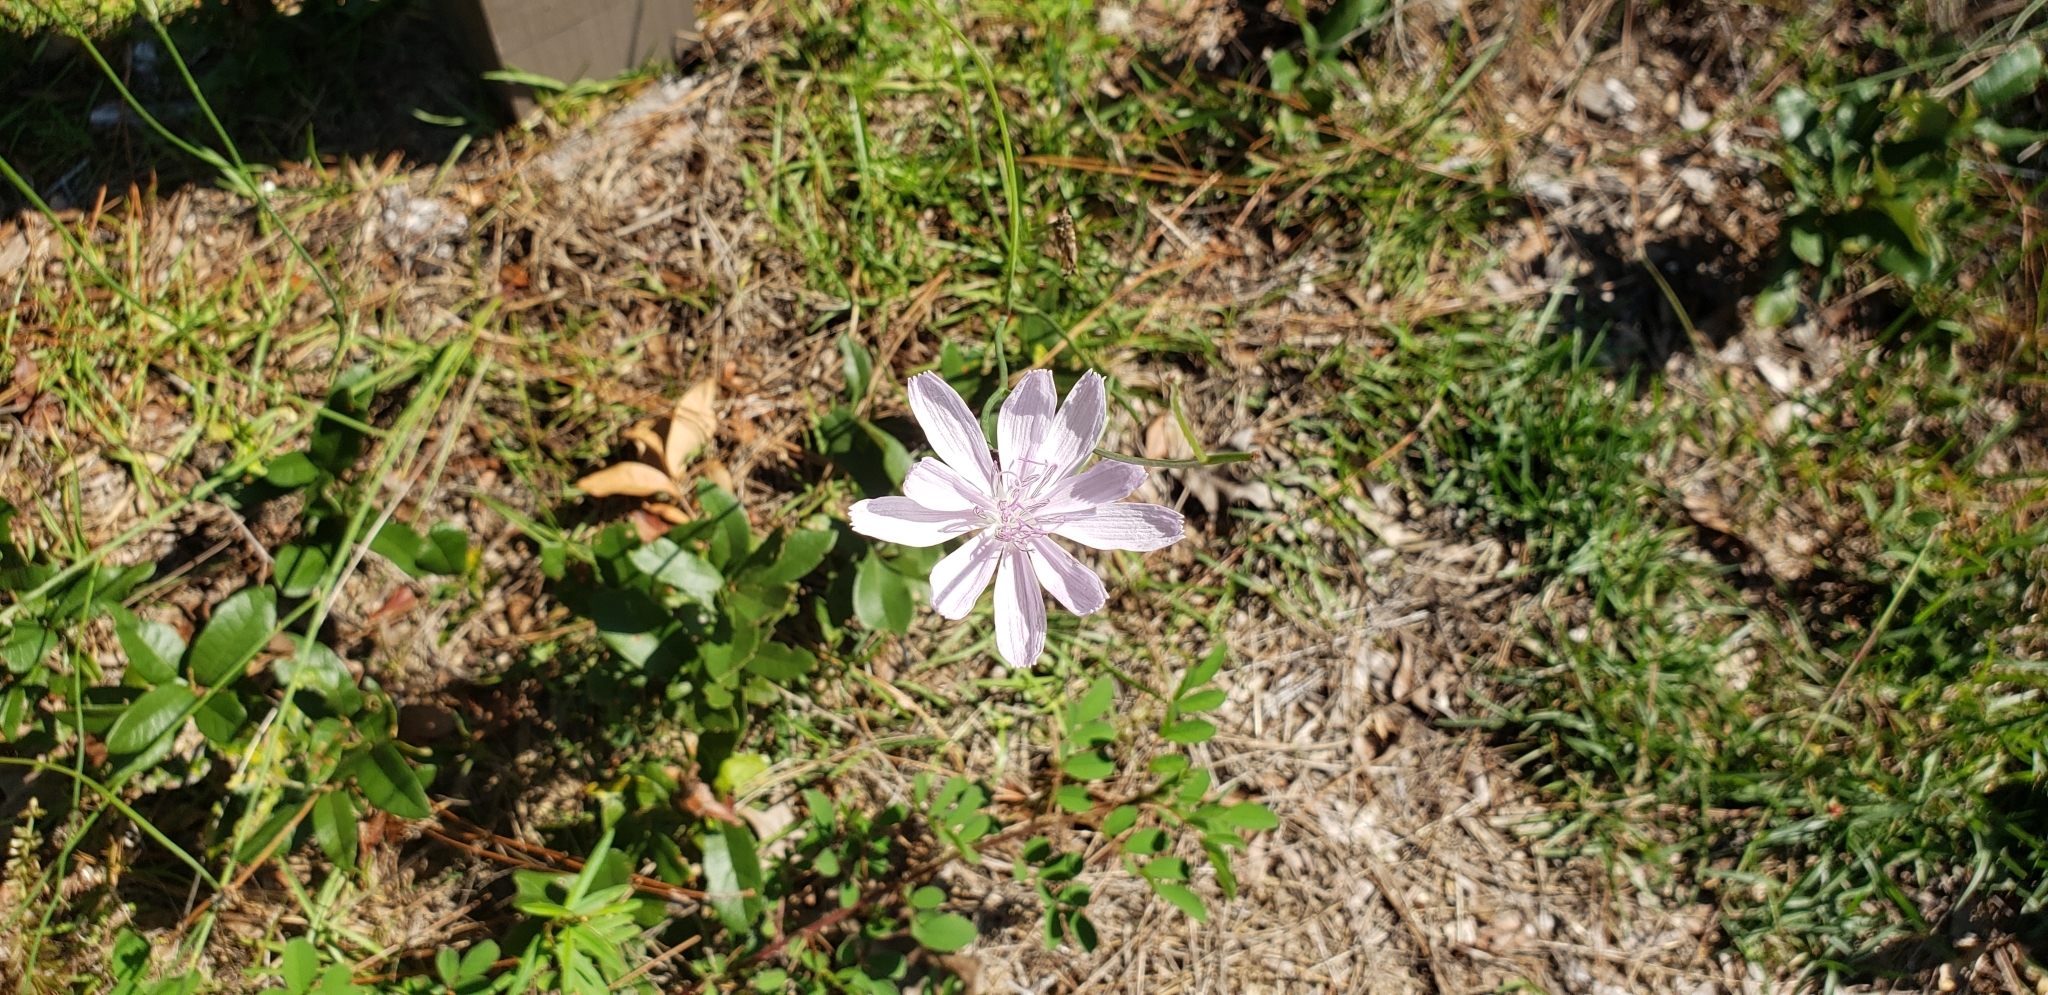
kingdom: Plantae
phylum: Tracheophyta
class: Magnoliopsida
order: Asterales
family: Asteraceae
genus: Lygodesmia
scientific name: Lygodesmia aphylla
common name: Rose-rush
